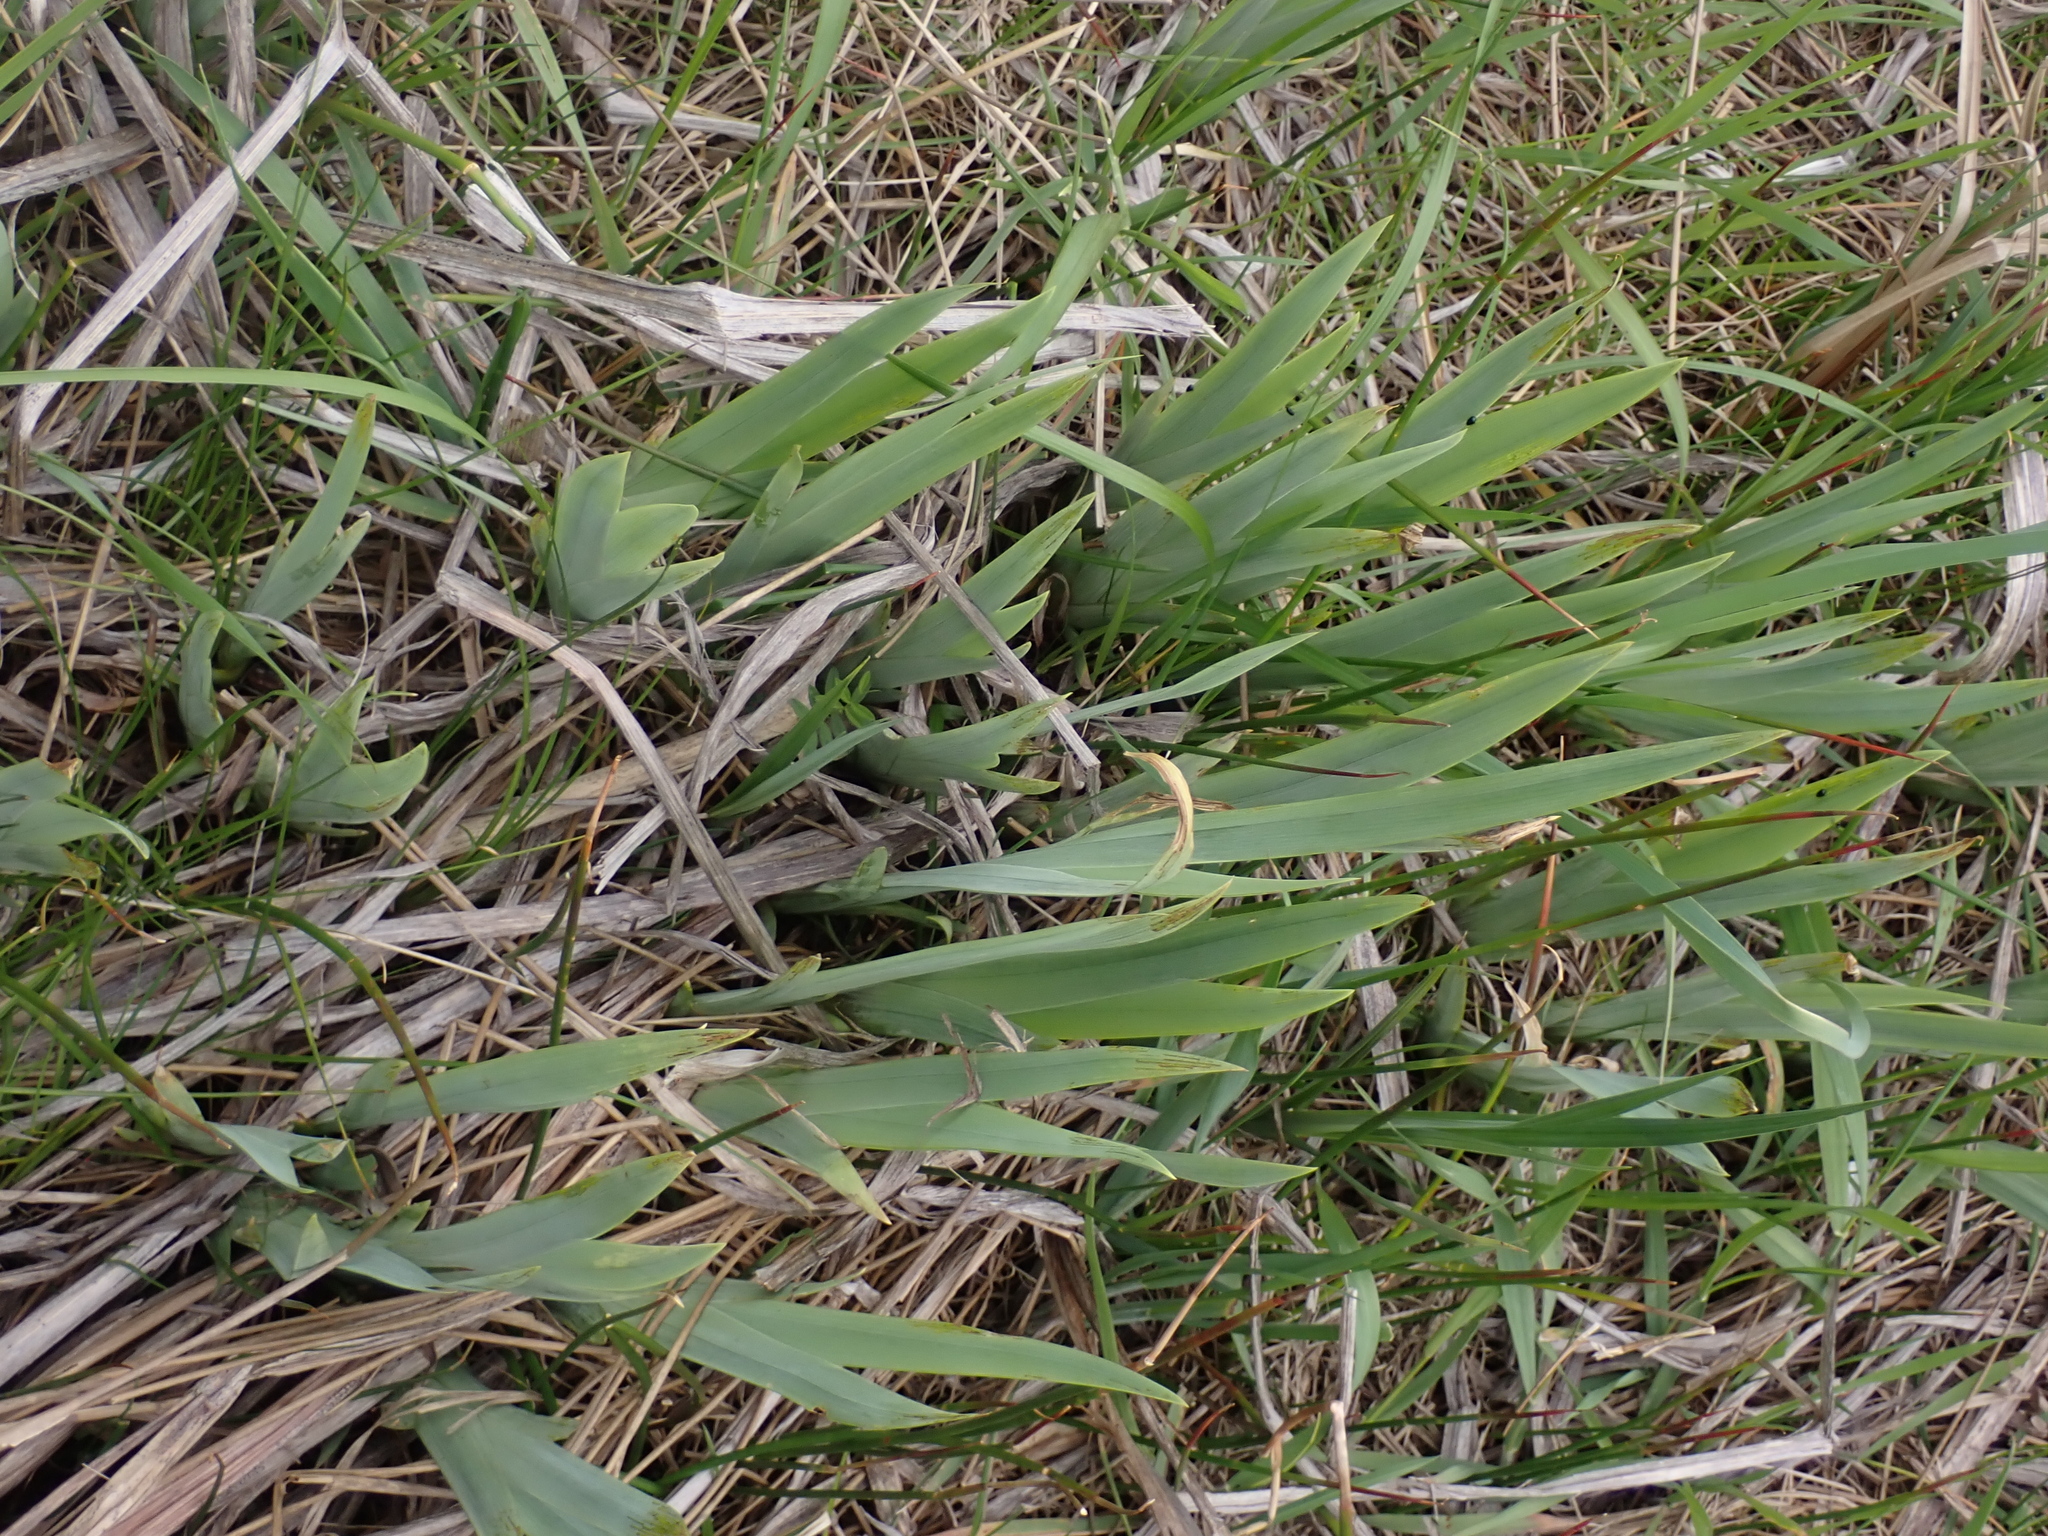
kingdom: Plantae
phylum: Tracheophyta
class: Liliopsida
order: Asparagales
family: Iridaceae
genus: Iris
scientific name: Iris pseudacorus
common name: Yellow flag
